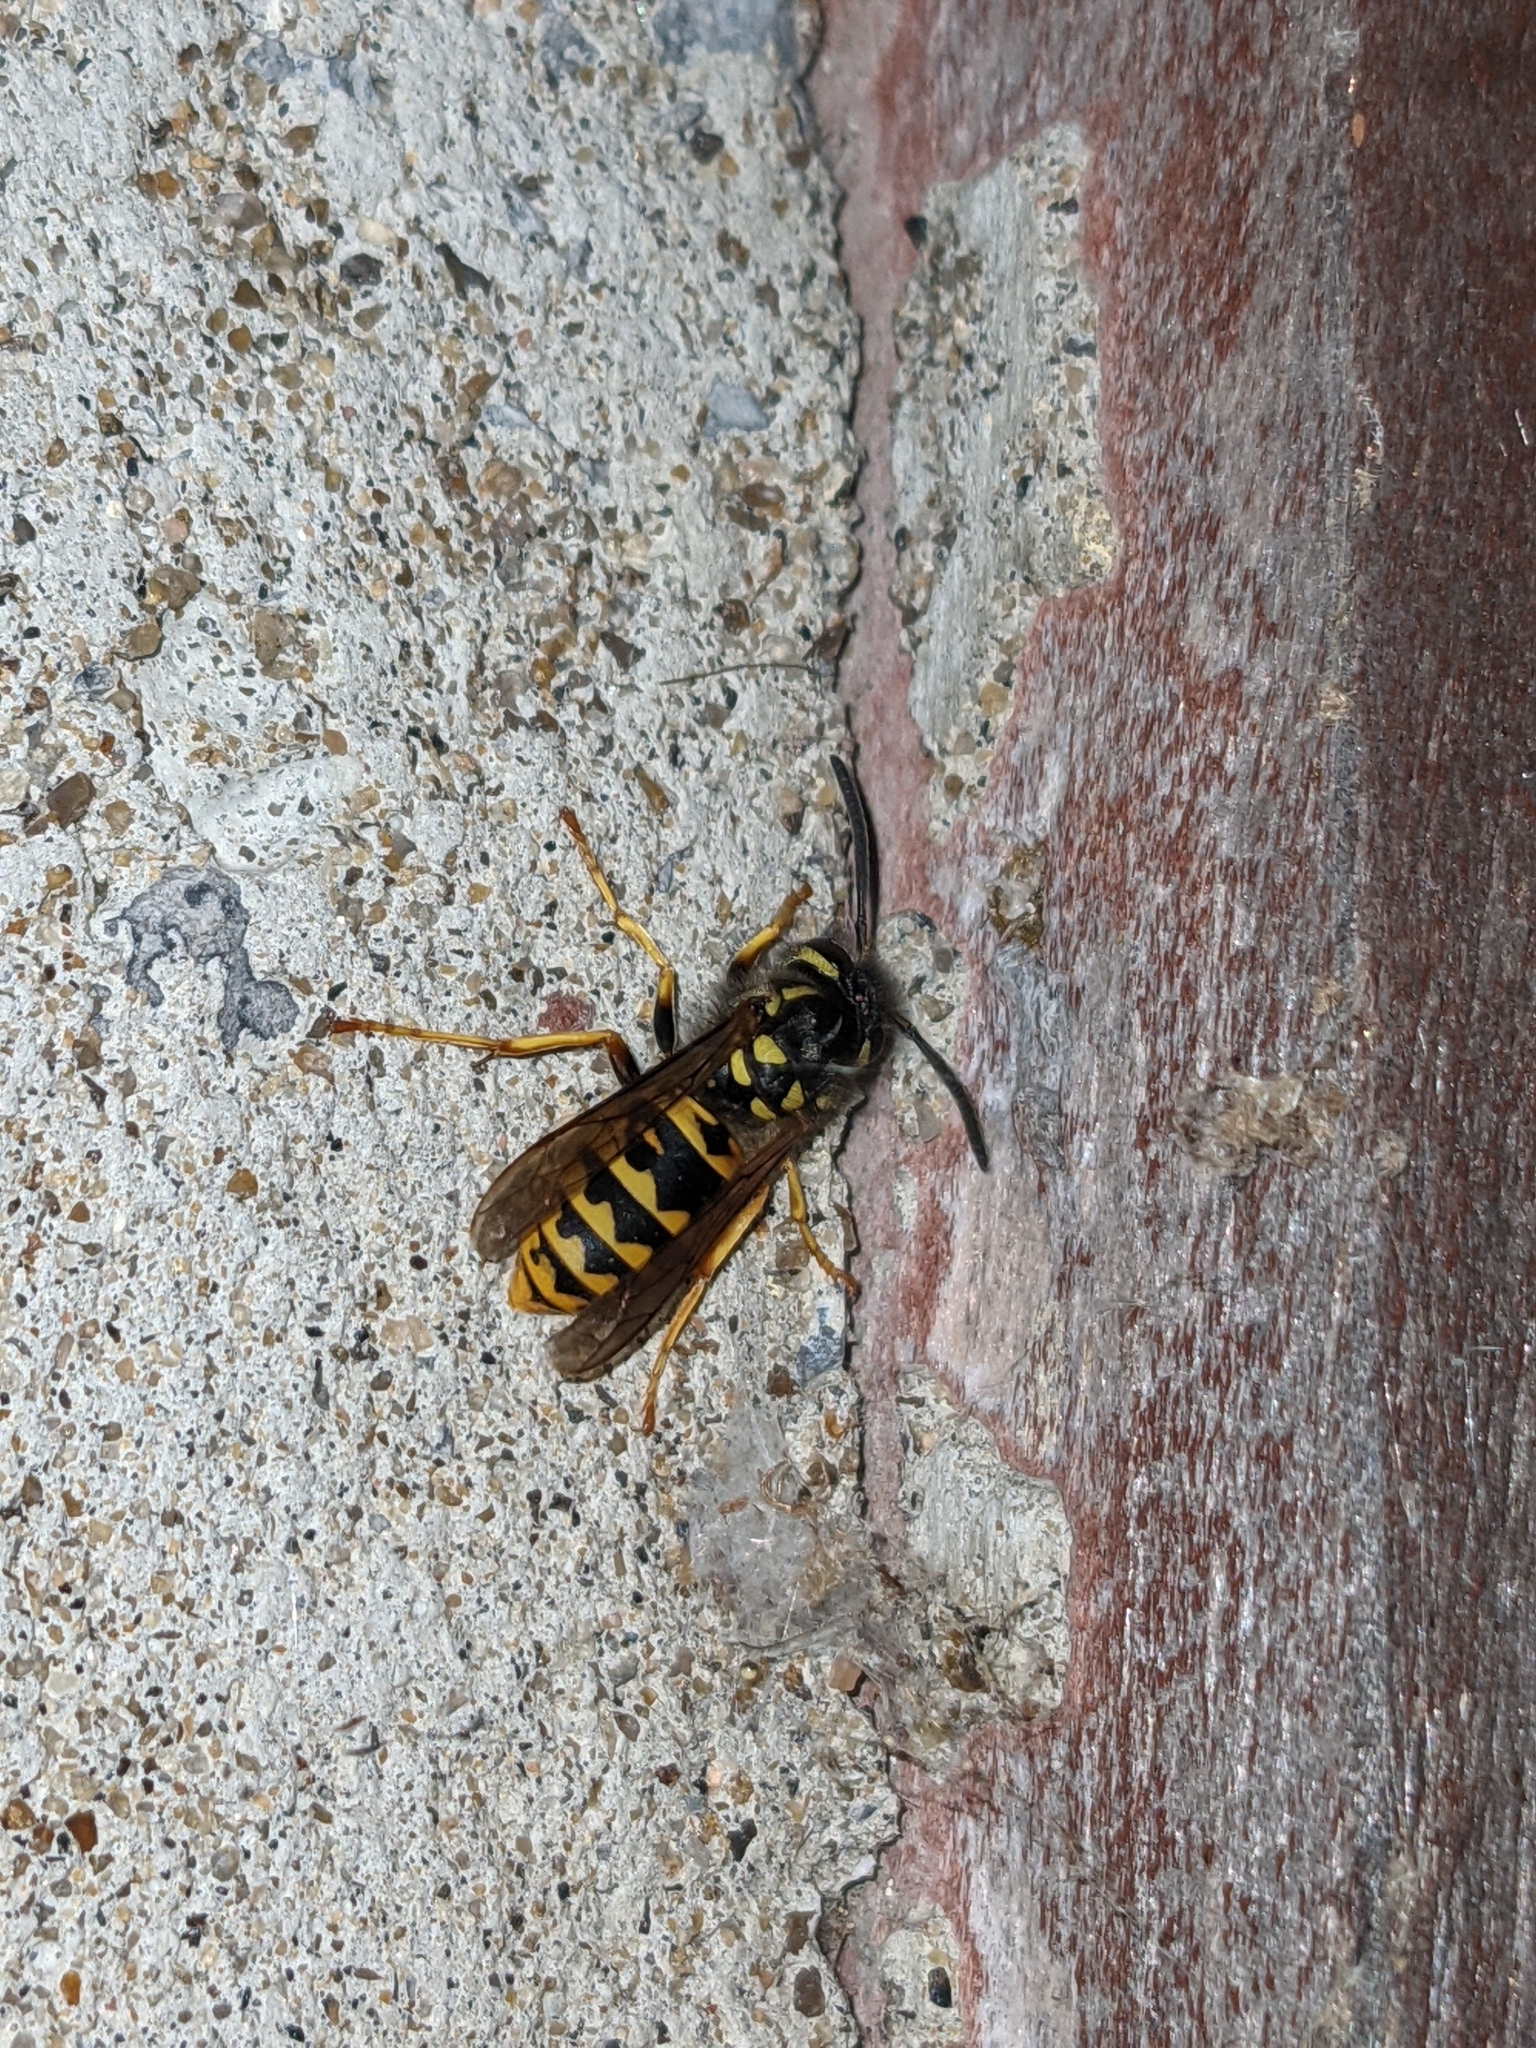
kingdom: Animalia
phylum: Arthropoda
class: Insecta
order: Hymenoptera
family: Vespidae
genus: Vespula
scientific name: Vespula germanica
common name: German wasp
